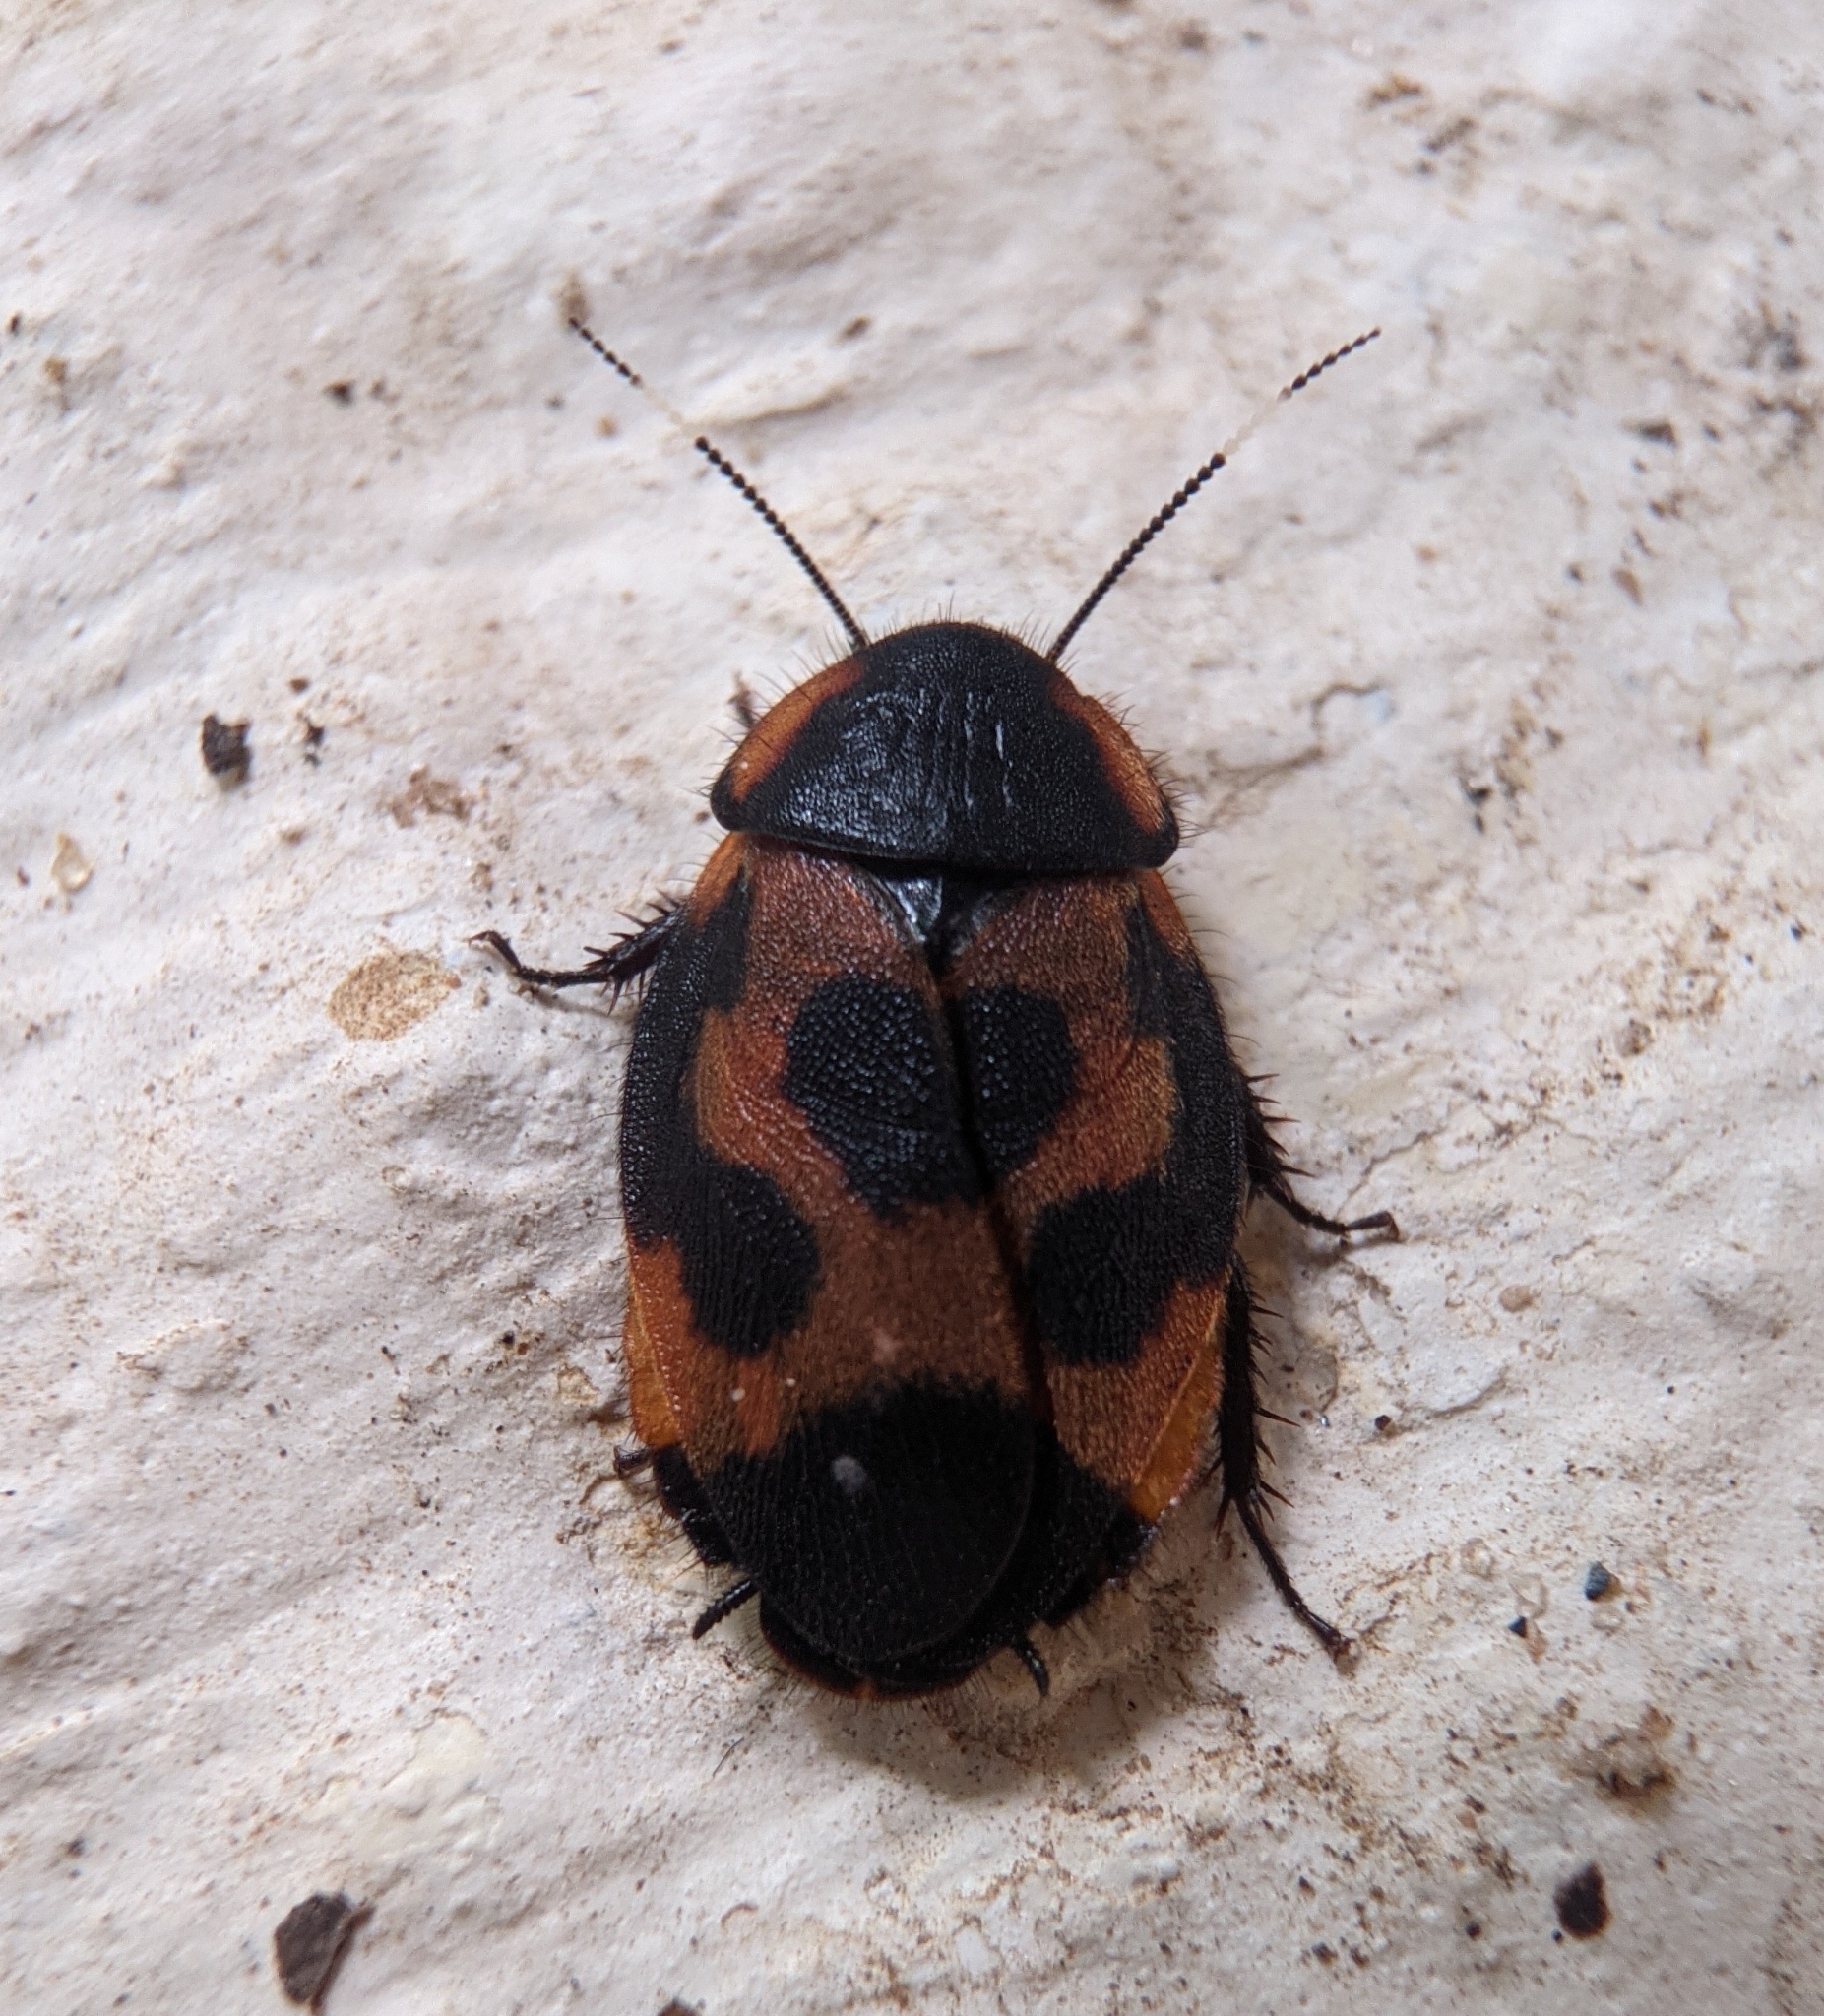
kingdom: Animalia
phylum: Arthropoda
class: Insecta
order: Blattodea
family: Corydiidae
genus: Eucorydia
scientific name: Eucorydia ornata
